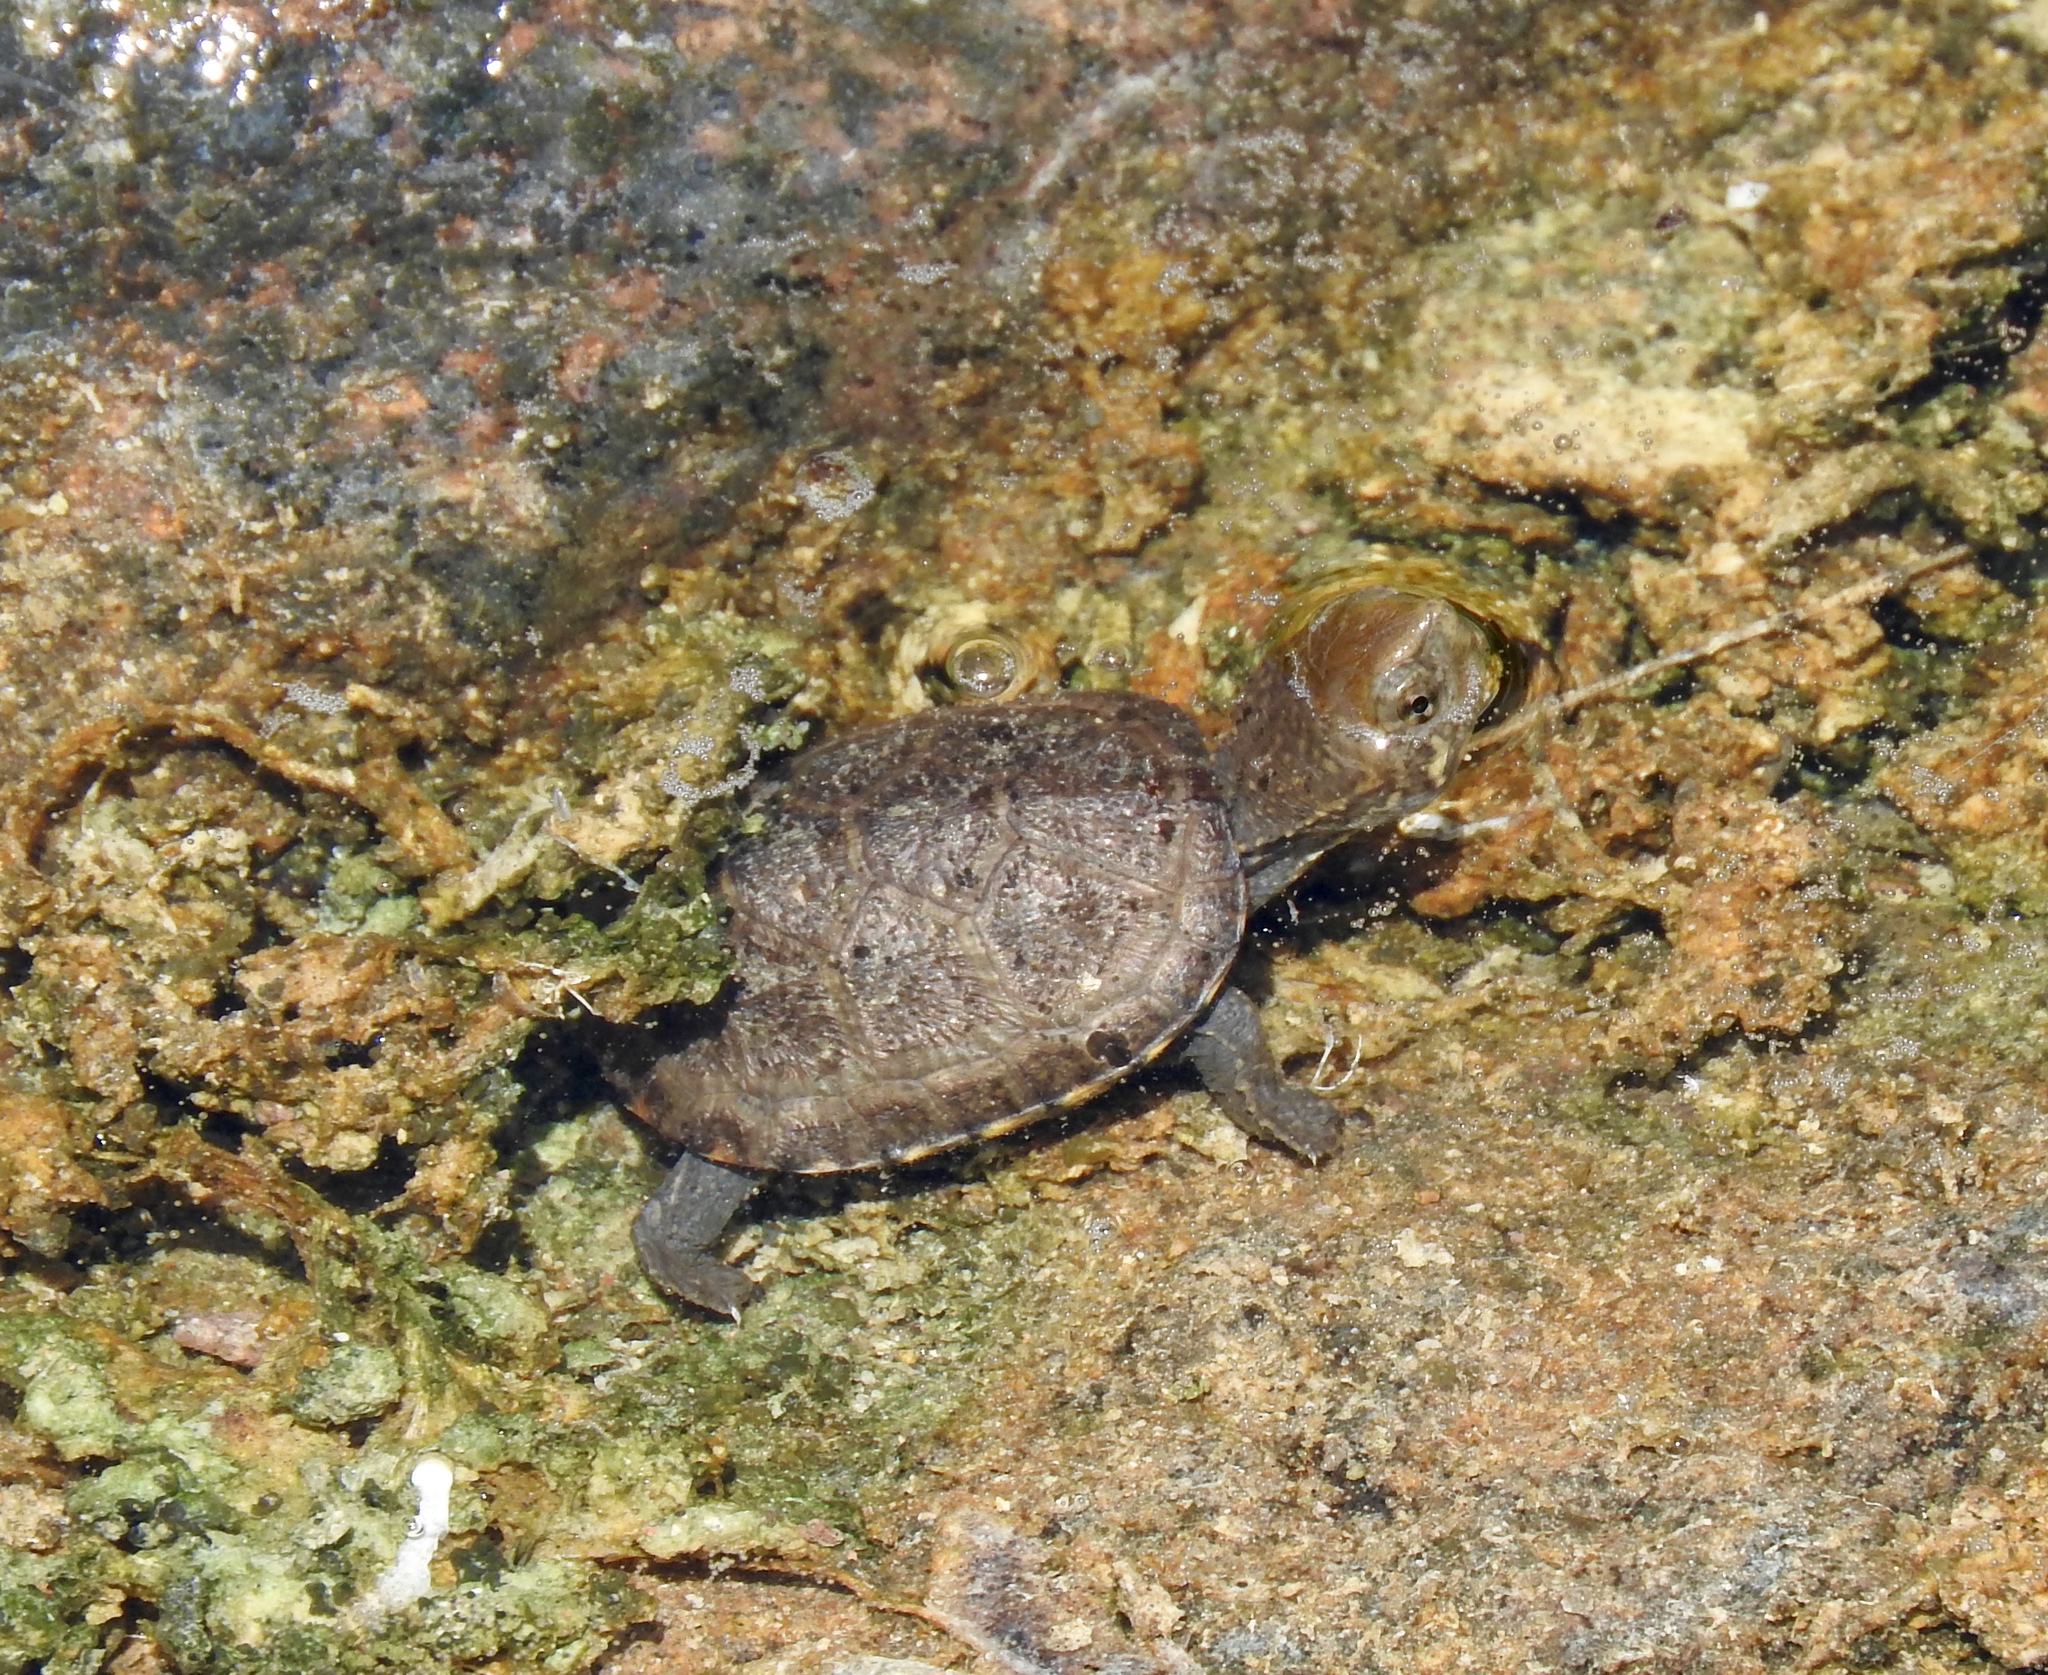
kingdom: Animalia
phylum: Chordata
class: Testudines
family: Kinosternidae
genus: Kinosternon
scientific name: Kinosternon sonoriense
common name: Sonora mud turtle
